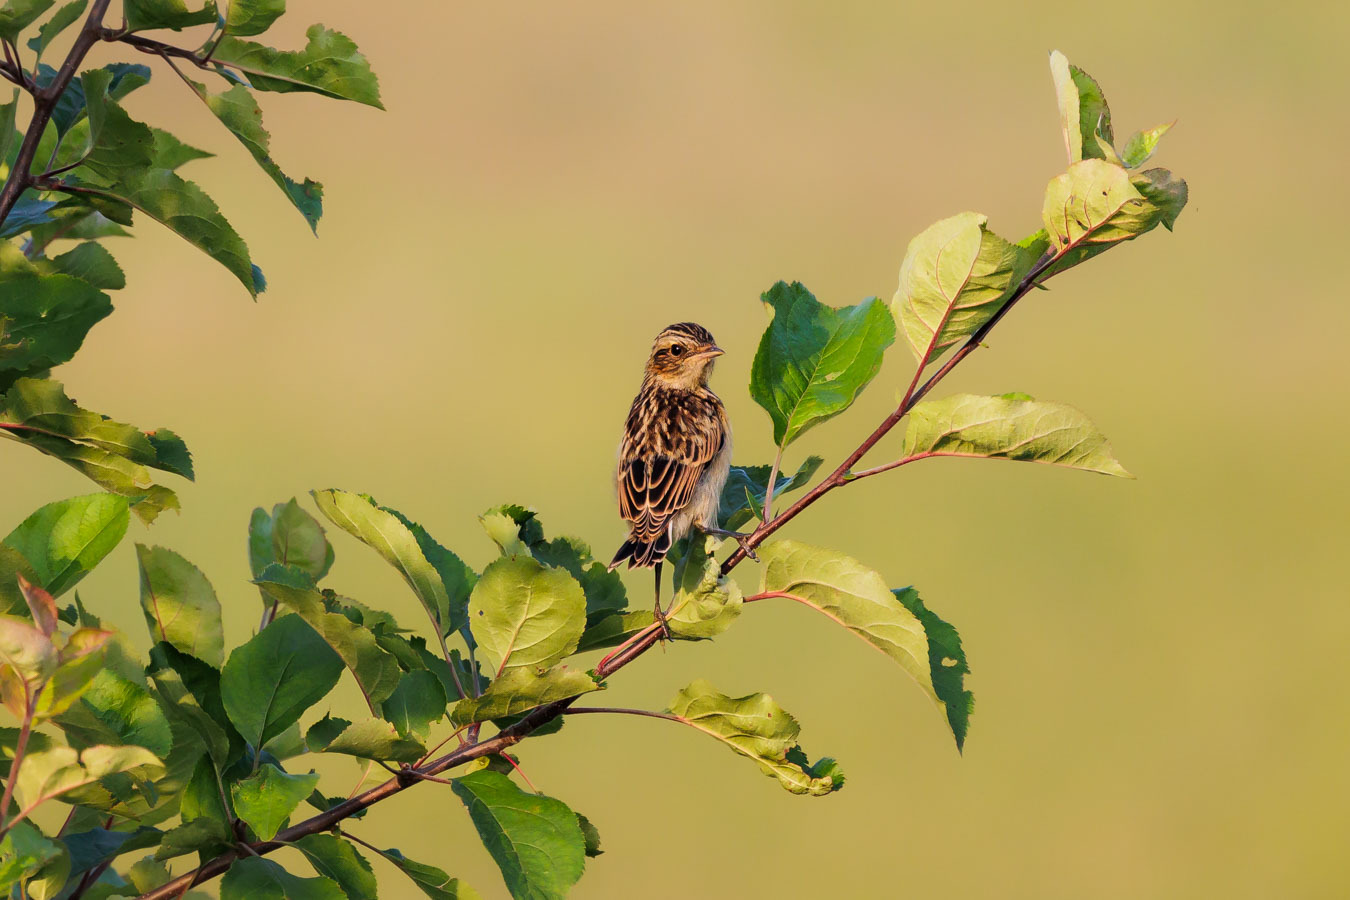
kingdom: Animalia
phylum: Chordata
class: Aves
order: Passeriformes
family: Muscicapidae
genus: Saxicola
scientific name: Saxicola rubetra
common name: Whinchat
